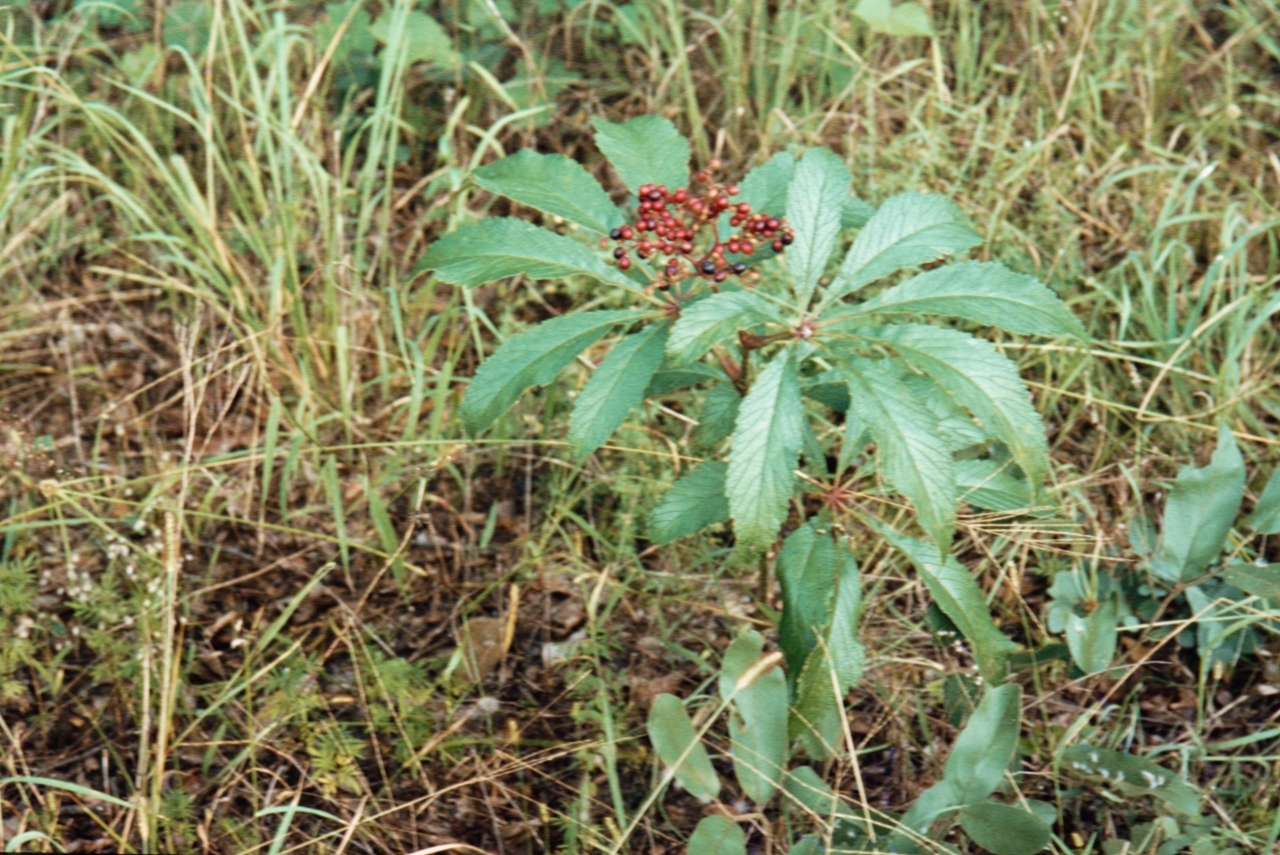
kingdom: Plantae
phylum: Tracheophyta
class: Magnoliopsida
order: Vitales
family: Vitaceae
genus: Cyphostemma
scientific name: Cyphostemma princeae
